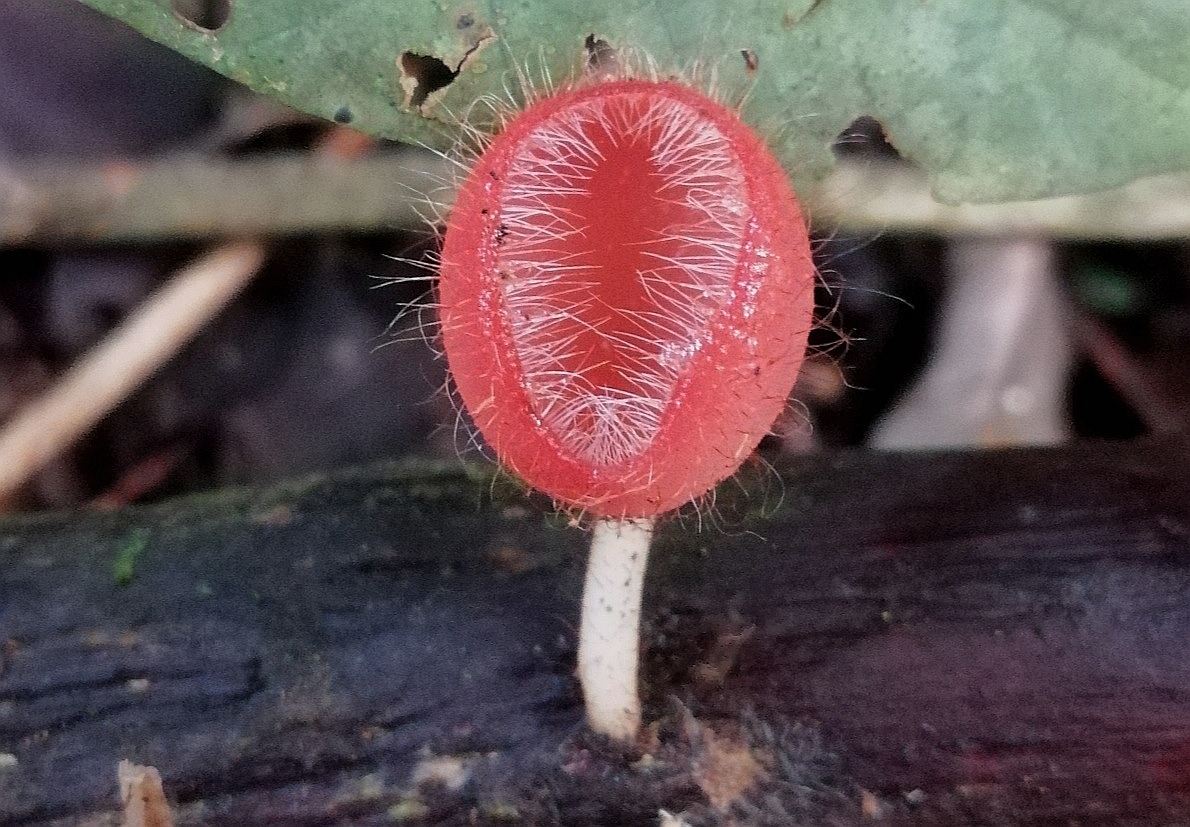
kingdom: Fungi
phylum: Ascomycota
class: Pezizomycetes
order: Pezizales
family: Sarcoscyphaceae
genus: Cookeina
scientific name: Cookeina tricholoma
